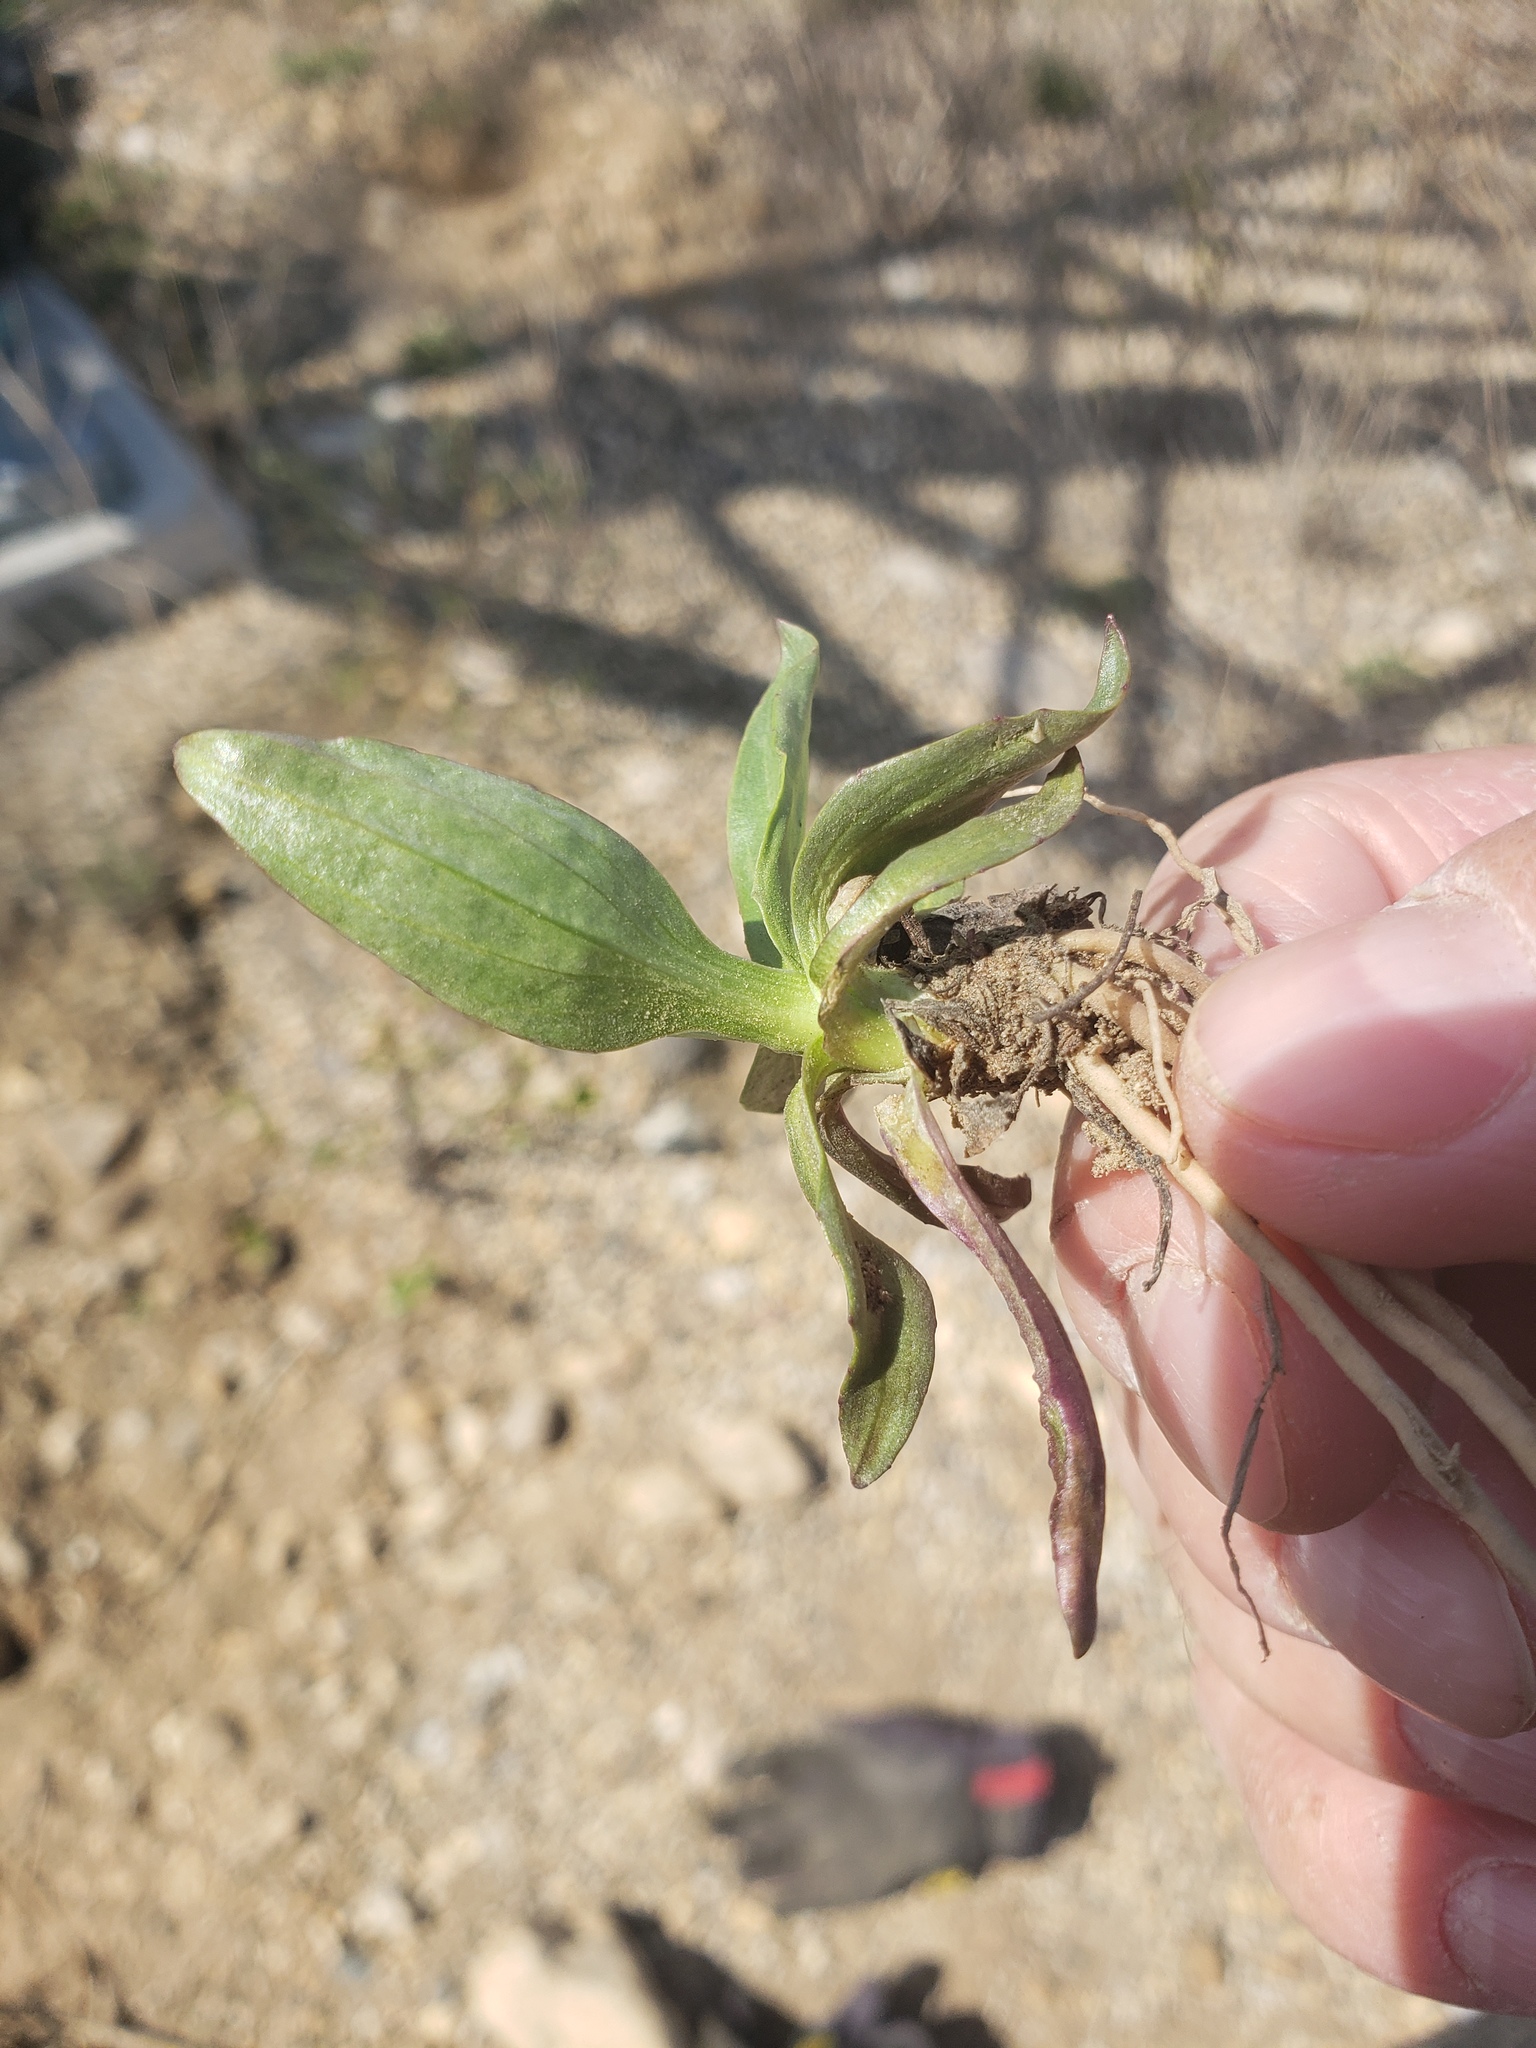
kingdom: Plantae
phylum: Tracheophyta
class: Magnoliopsida
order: Lamiales
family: Plantaginaceae
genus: Plantago
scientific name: Plantago major
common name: Common plantain
